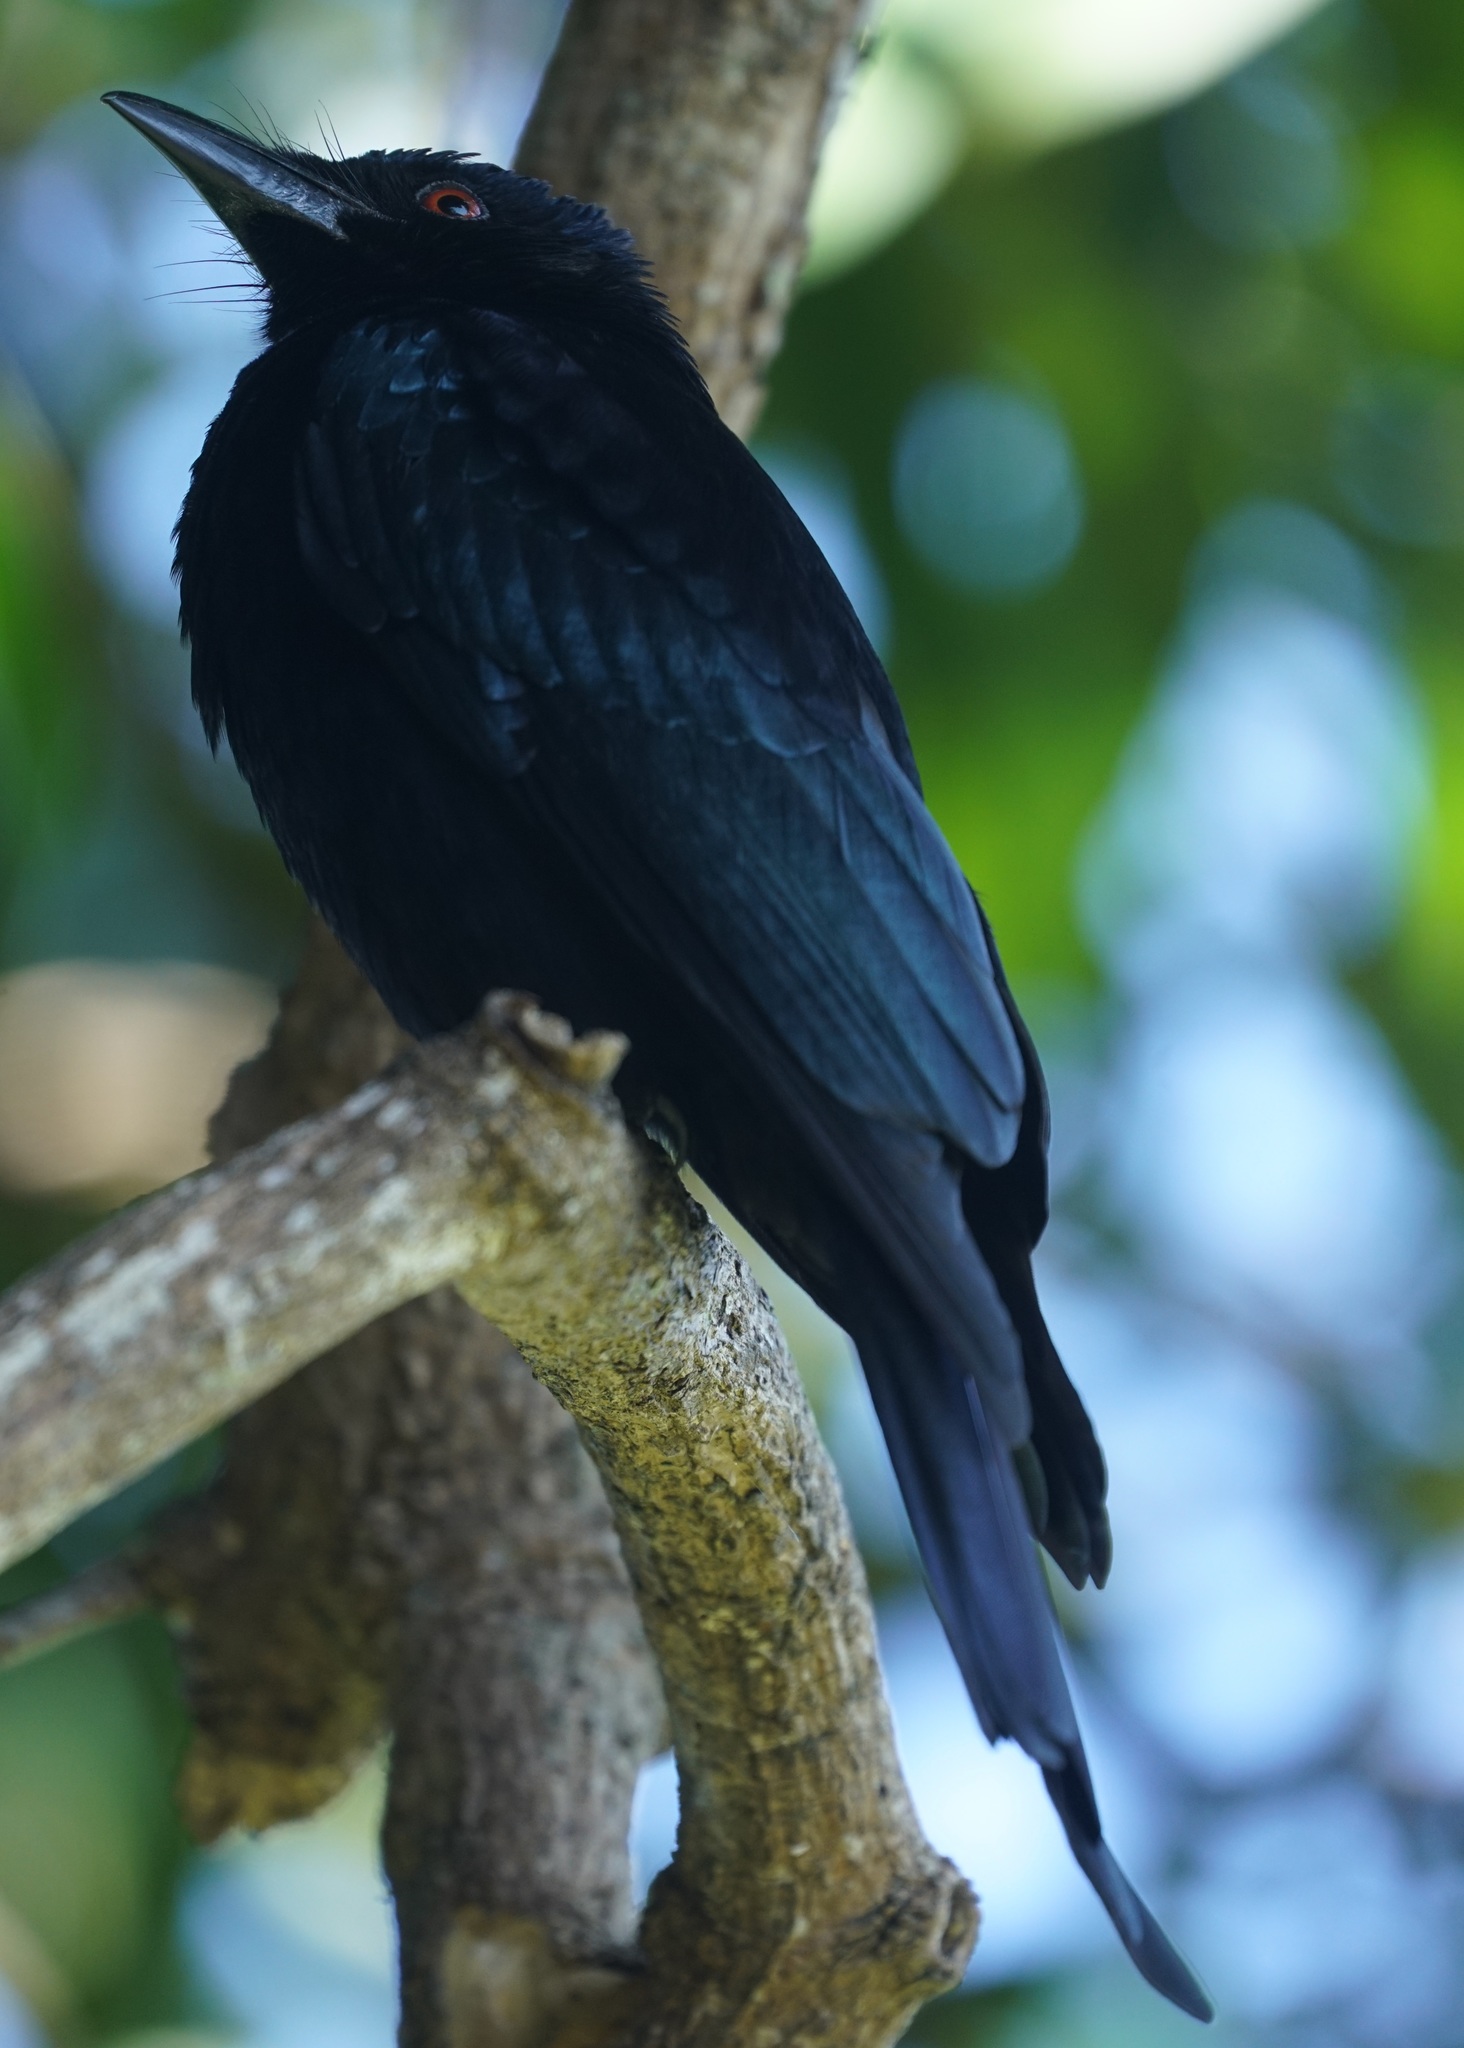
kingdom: Animalia
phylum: Chordata
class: Aves
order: Passeriformes
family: Dicruridae
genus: Dicrurus
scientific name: Dicrurus bracteatus
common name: Spangled drongo
